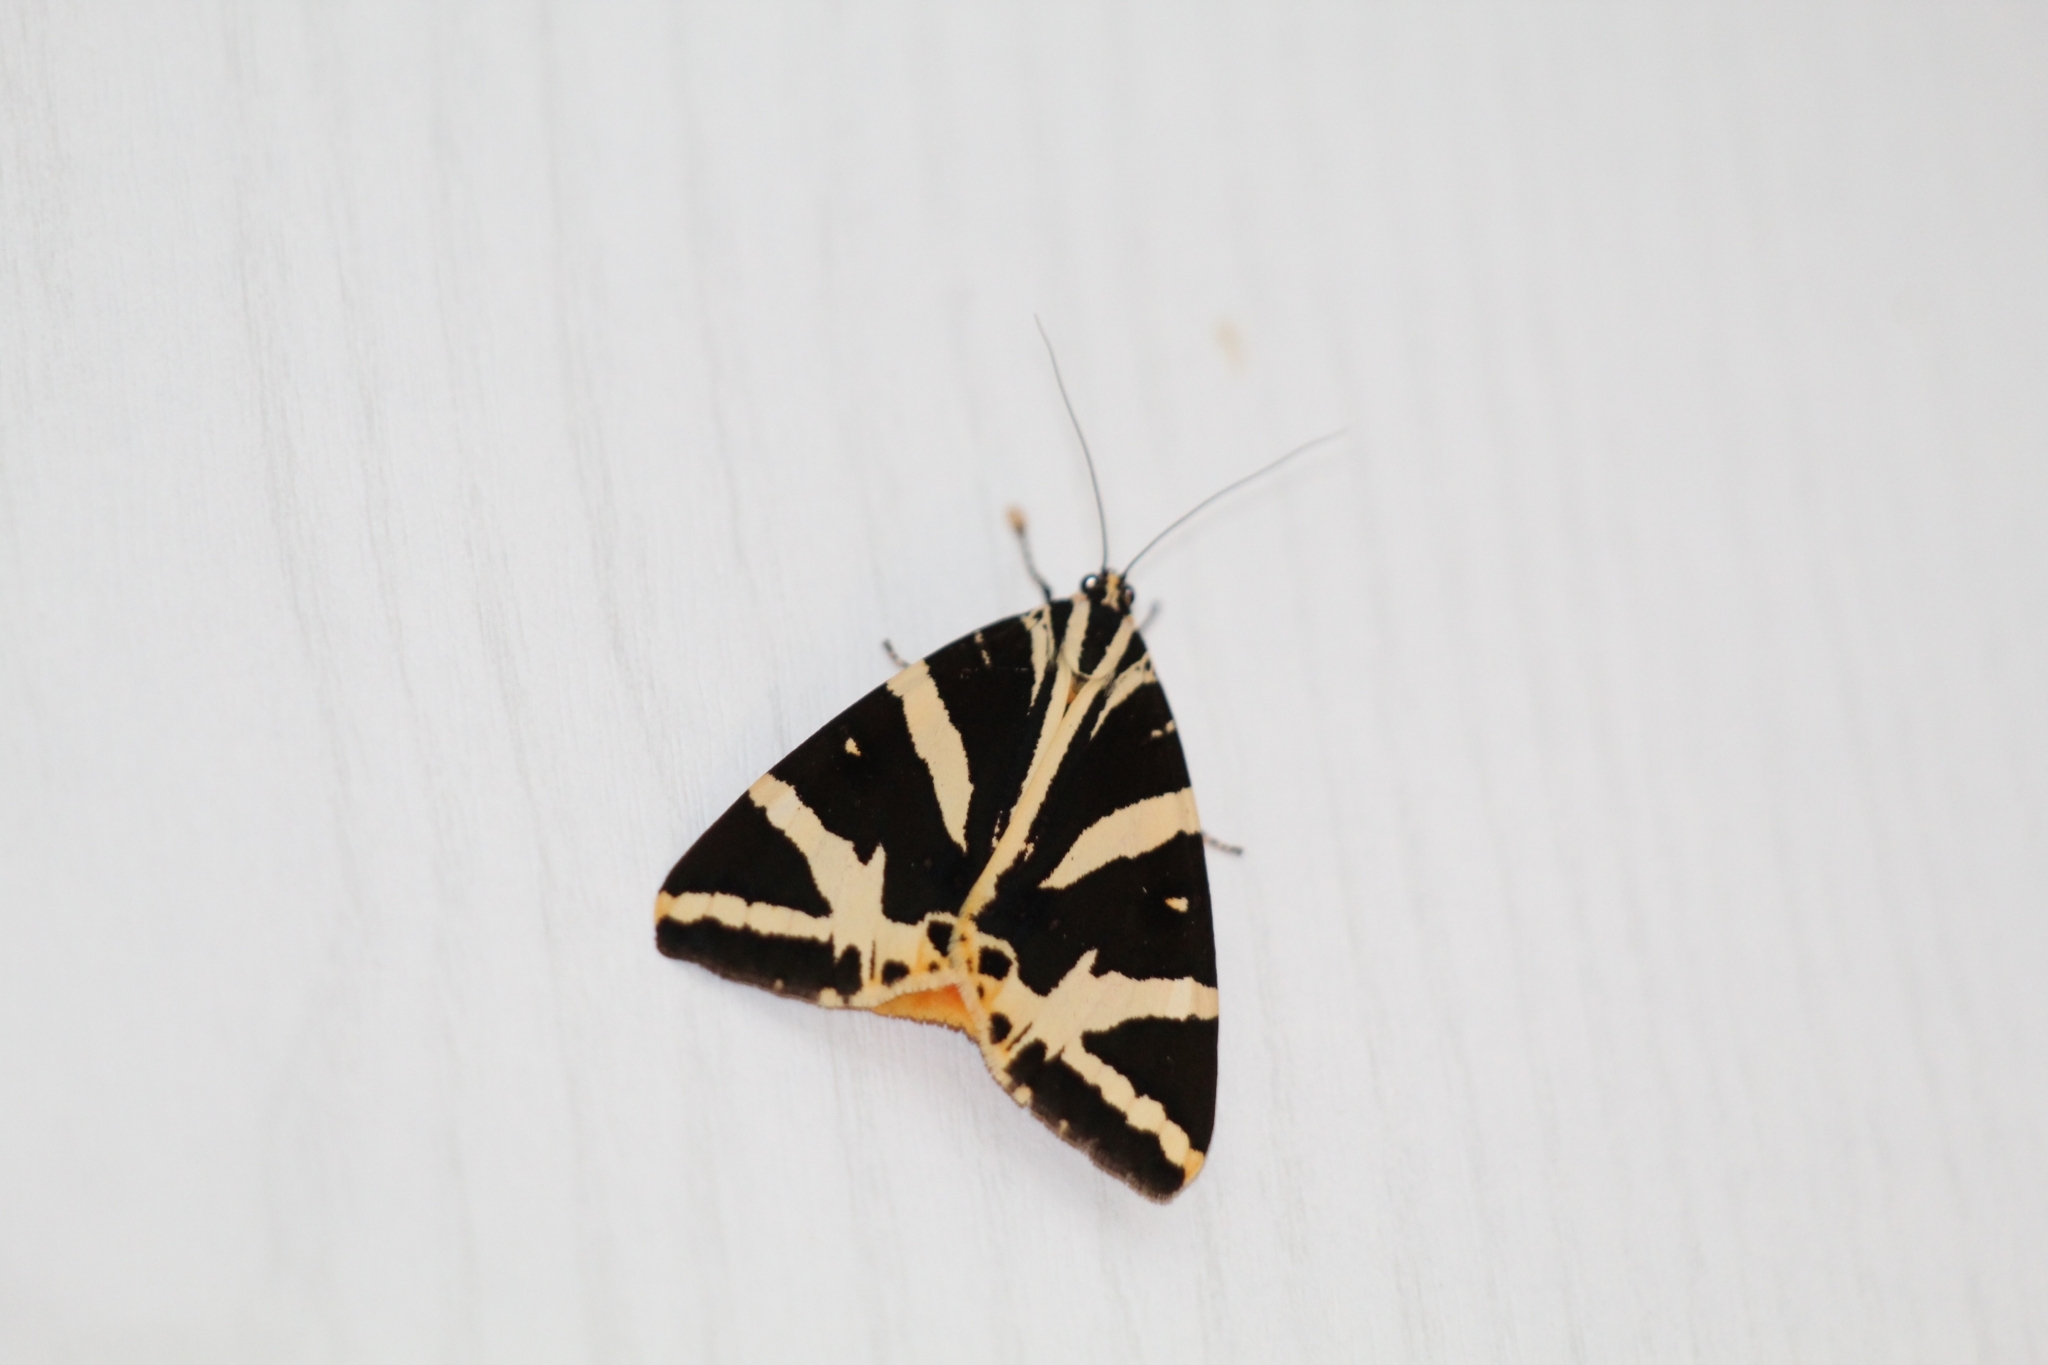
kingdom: Animalia
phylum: Arthropoda
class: Insecta
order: Lepidoptera
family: Erebidae
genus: Euplagia
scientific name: Euplagia quadripunctaria
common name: Jersey tiger
